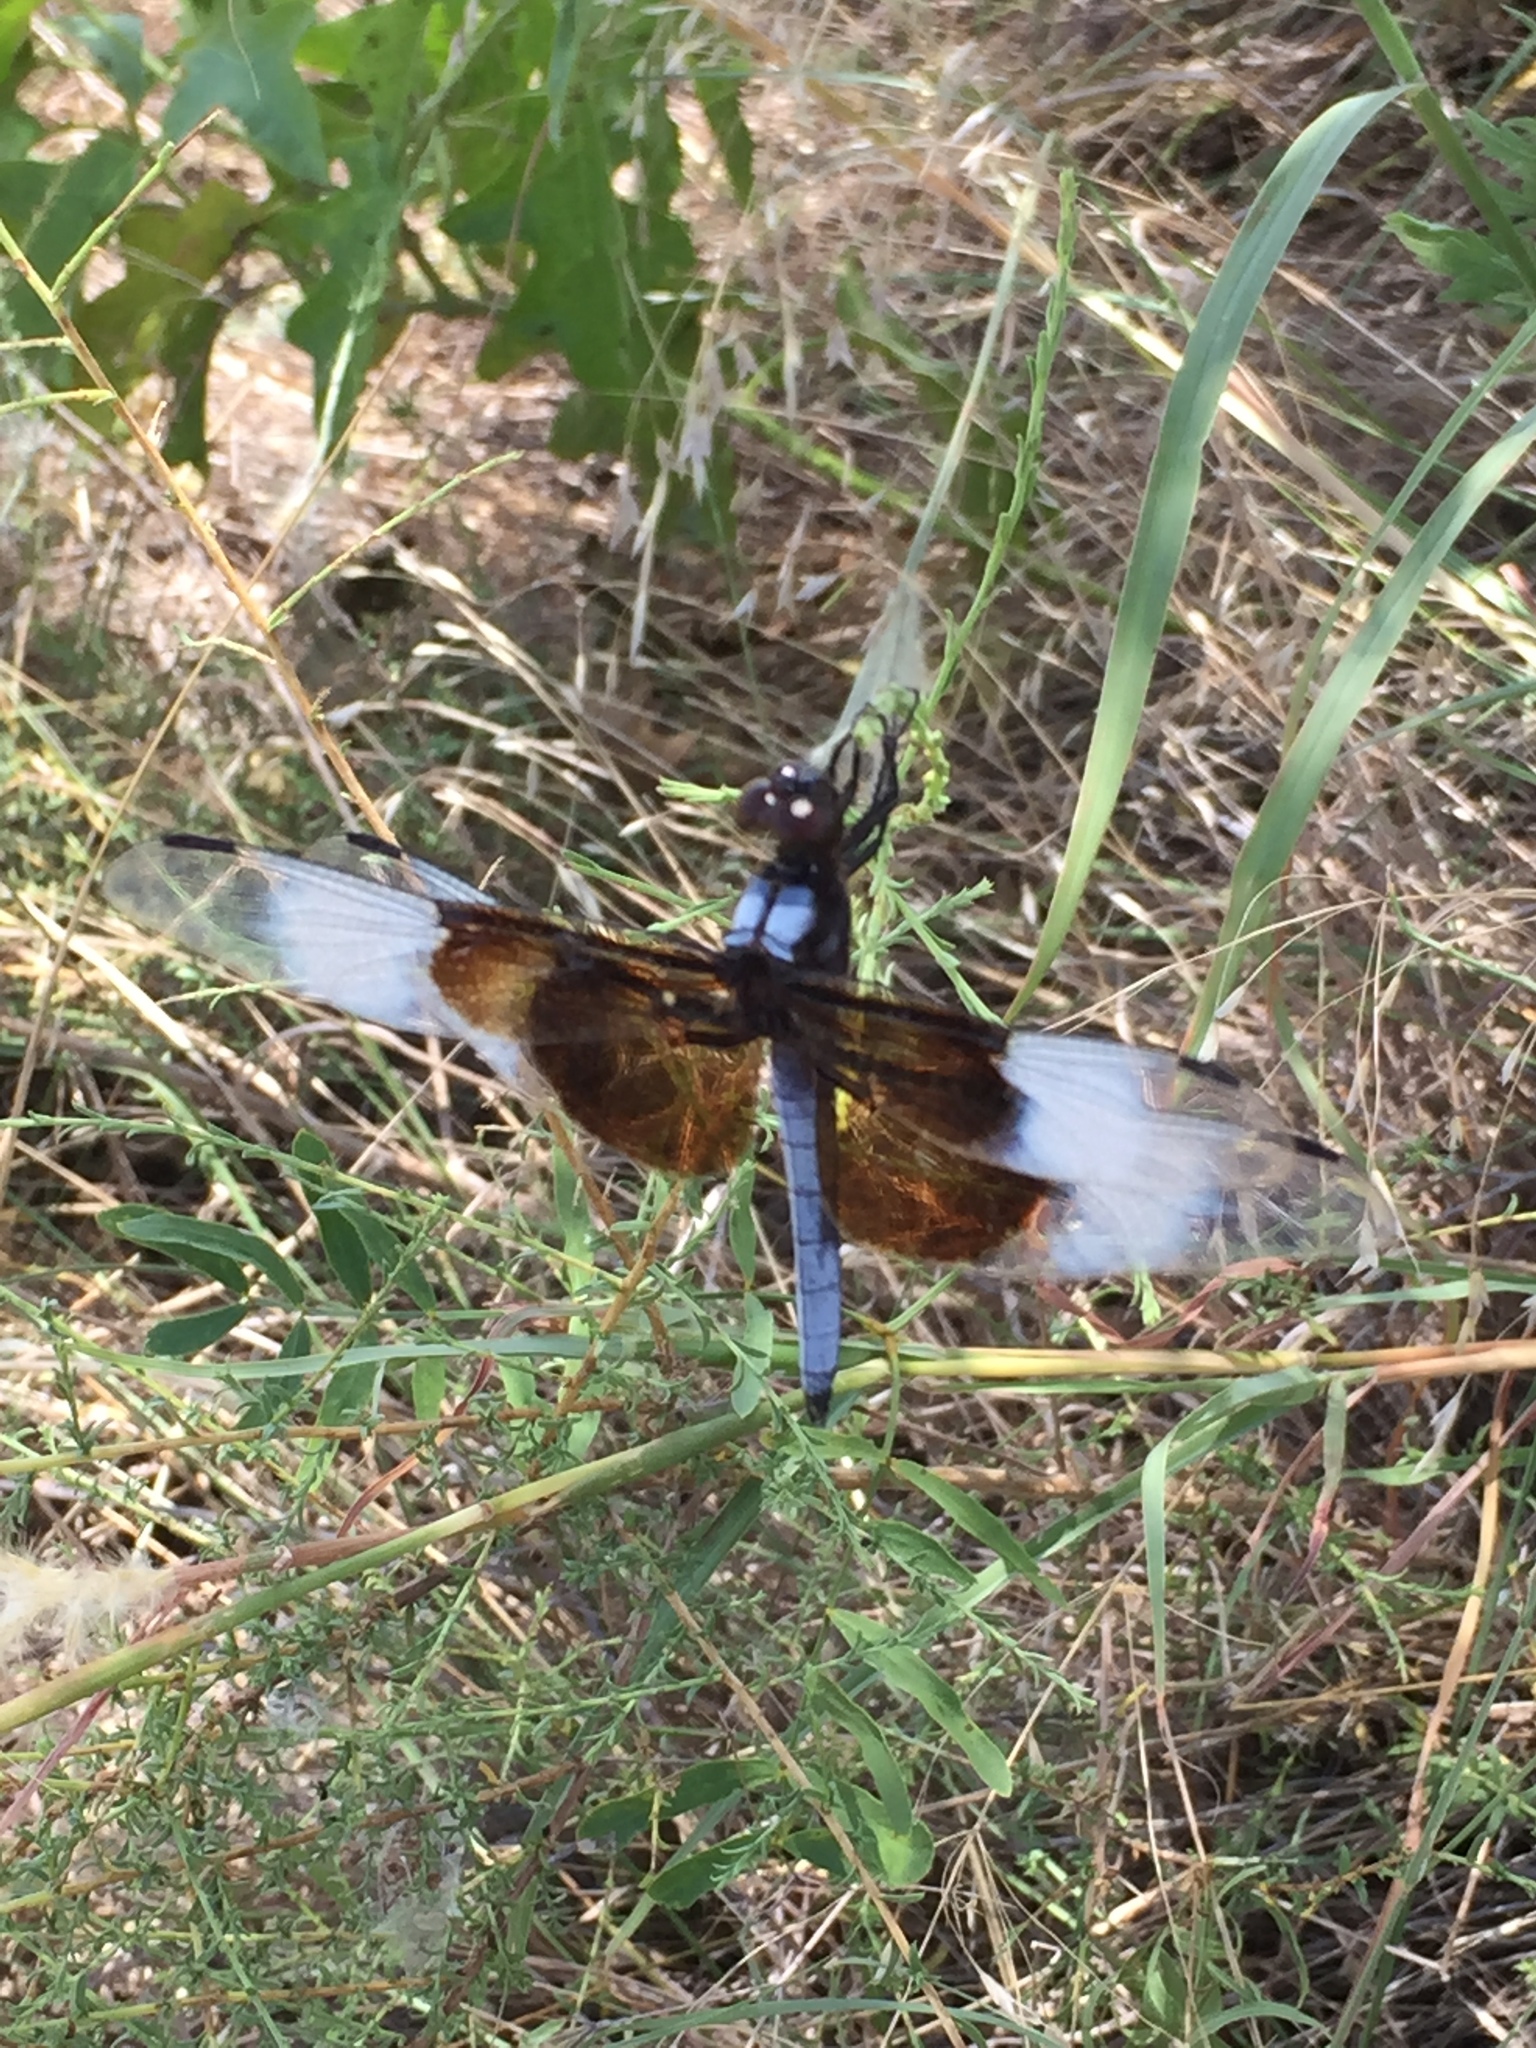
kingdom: Animalia
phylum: Arthropoda
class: Insecta
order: Odonata
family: Libellulidae
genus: Libellula
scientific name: Libellula luctuosa
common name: Widow skimmer
